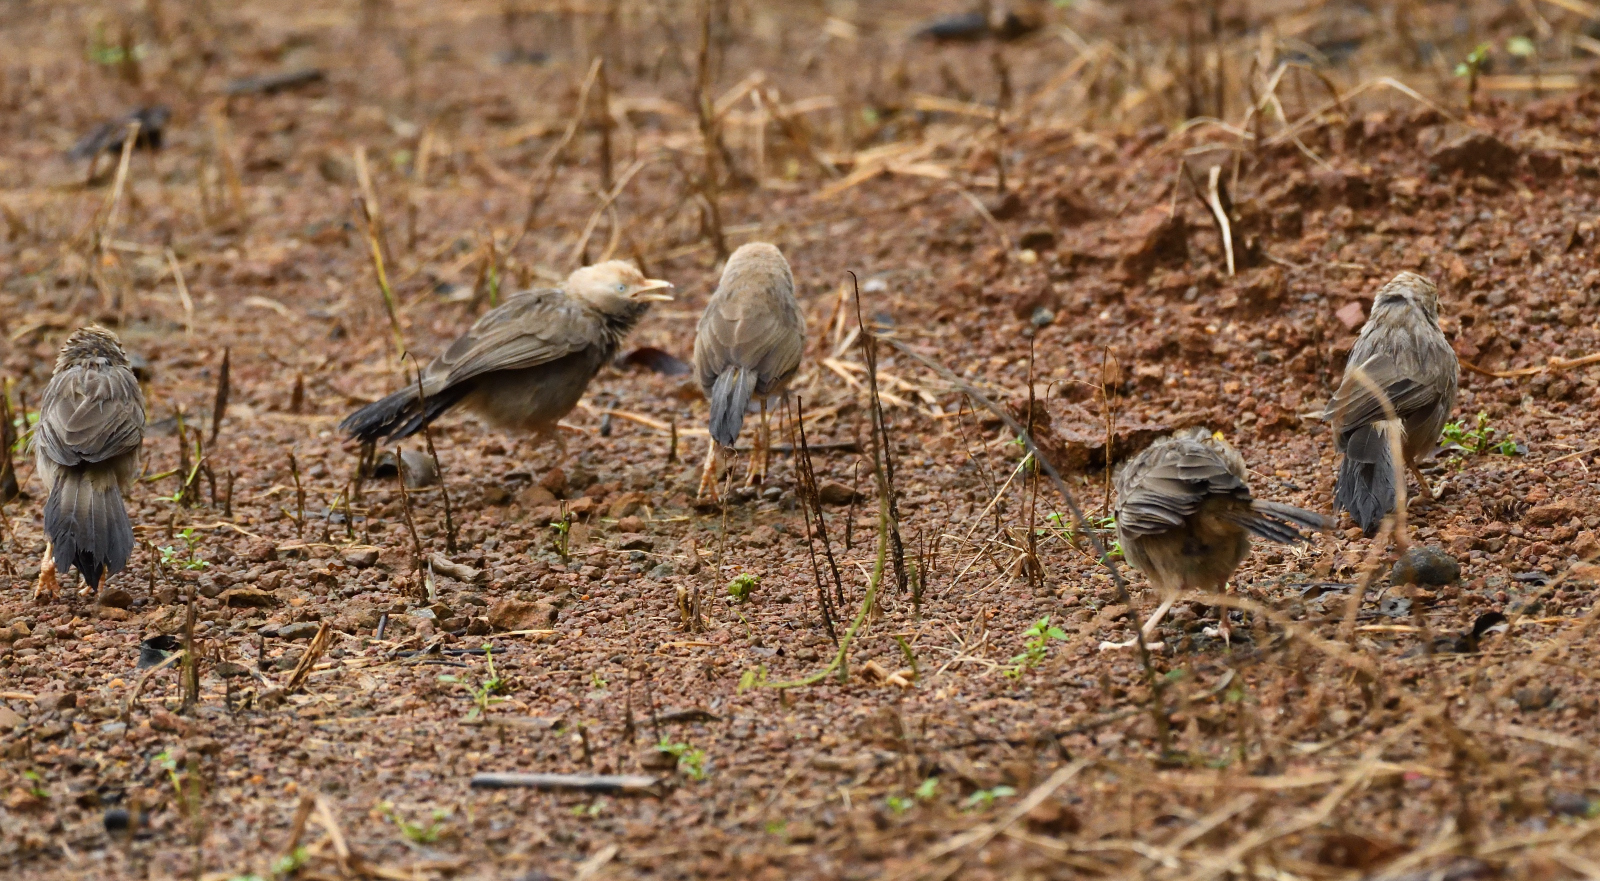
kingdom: Animalia
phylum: Chordata
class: Aves
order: Passeriformes
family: Leiothrichidae
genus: Turdoides
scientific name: Turdoides affinis
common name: Yellow-billed babbler
